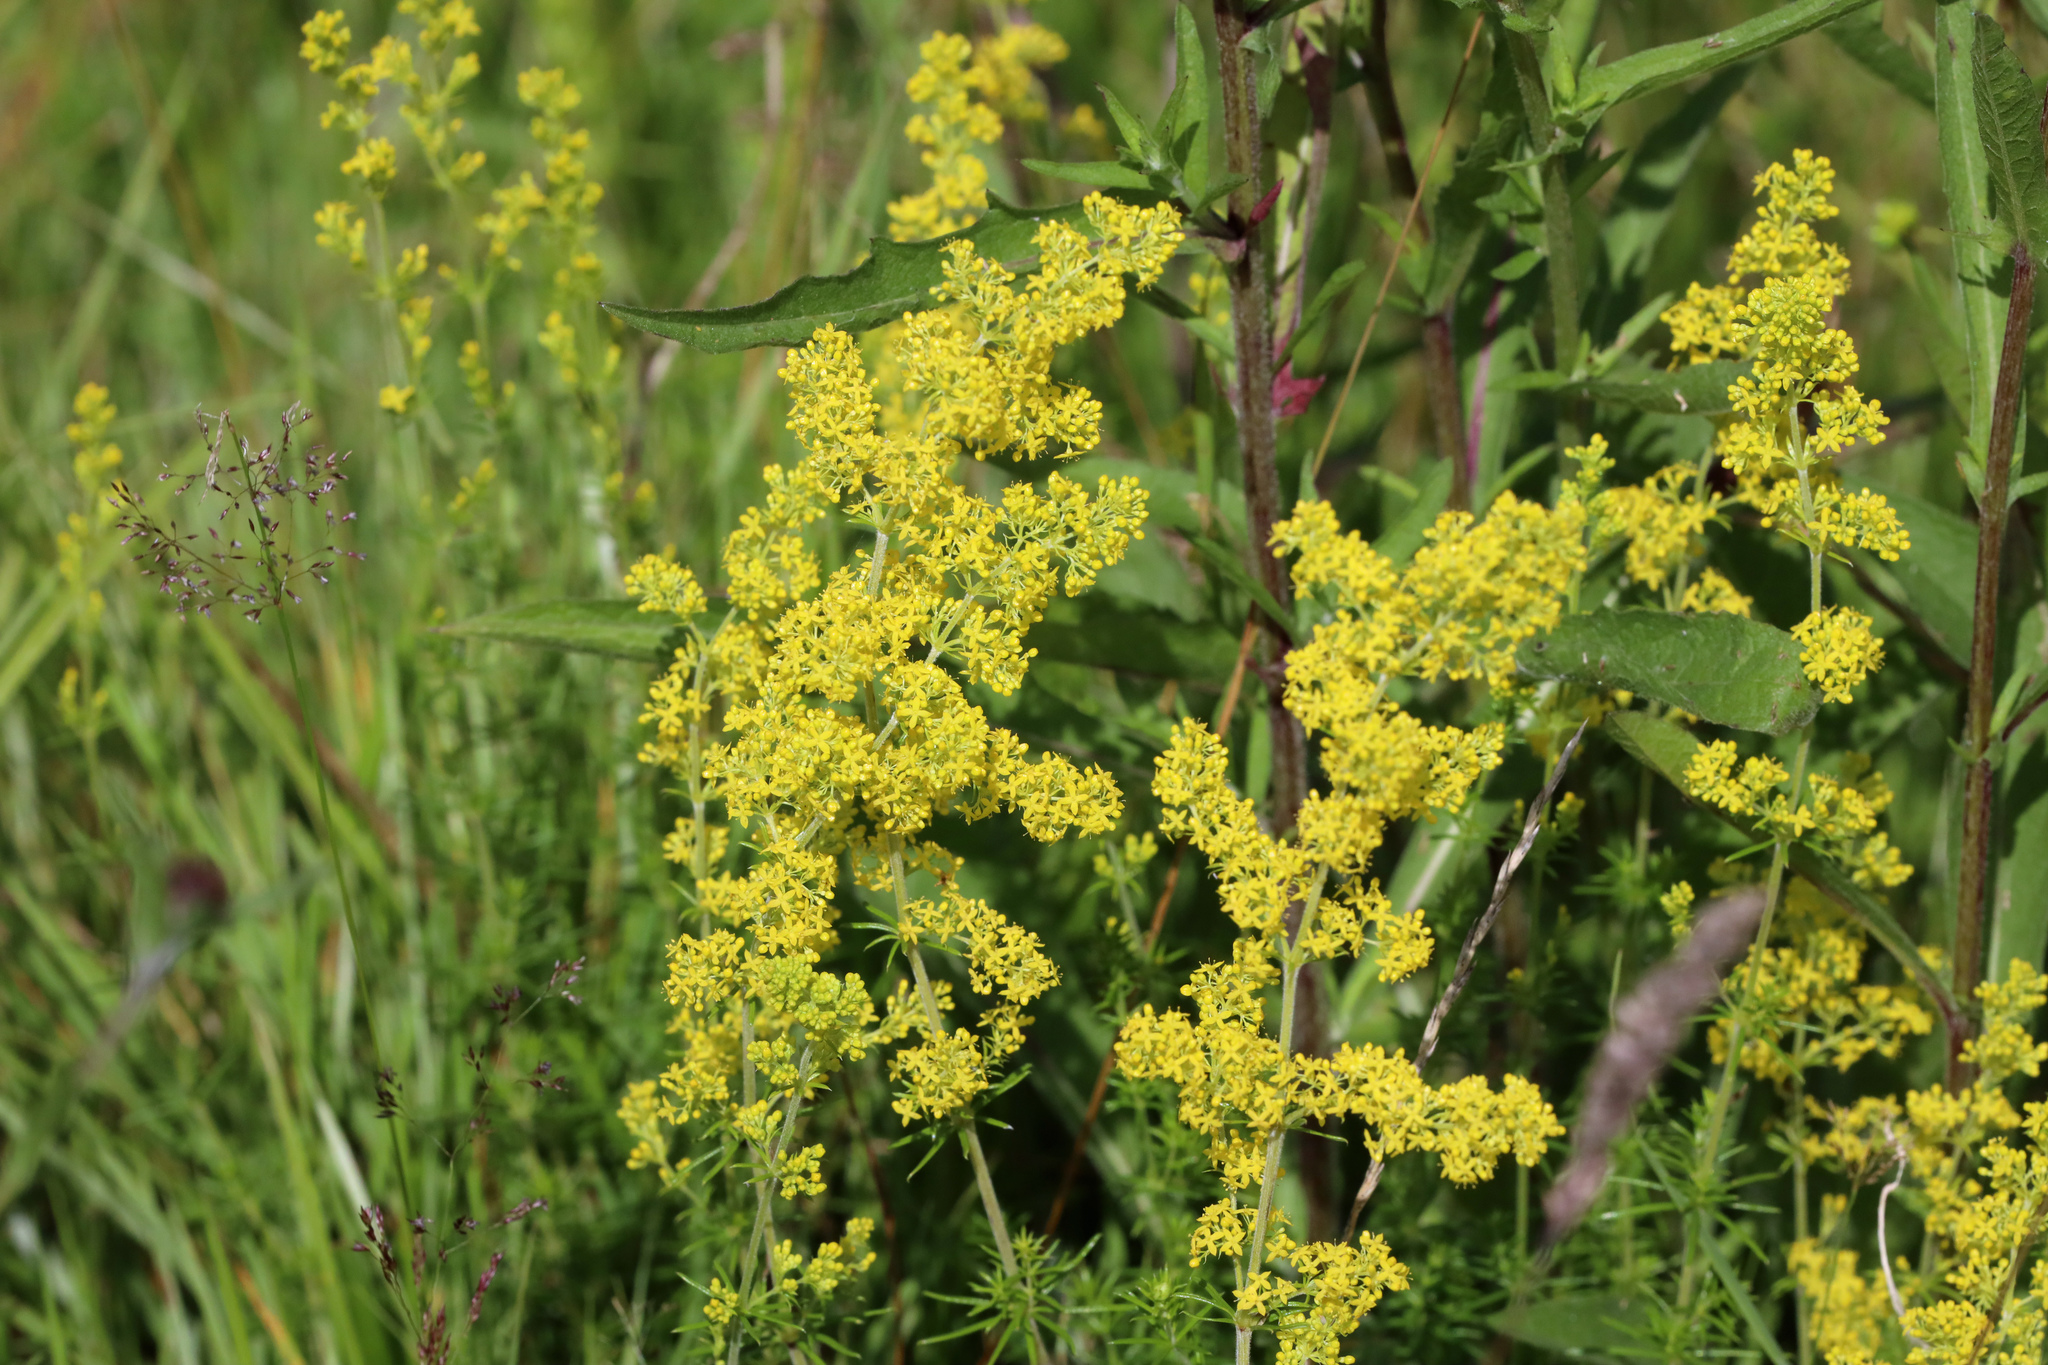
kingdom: Plantae
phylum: Tracheophyta
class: Magnoliopsida
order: Gentianales
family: Rubiaceae
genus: Galium
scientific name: Galium verum
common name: Lady's bedstraw
